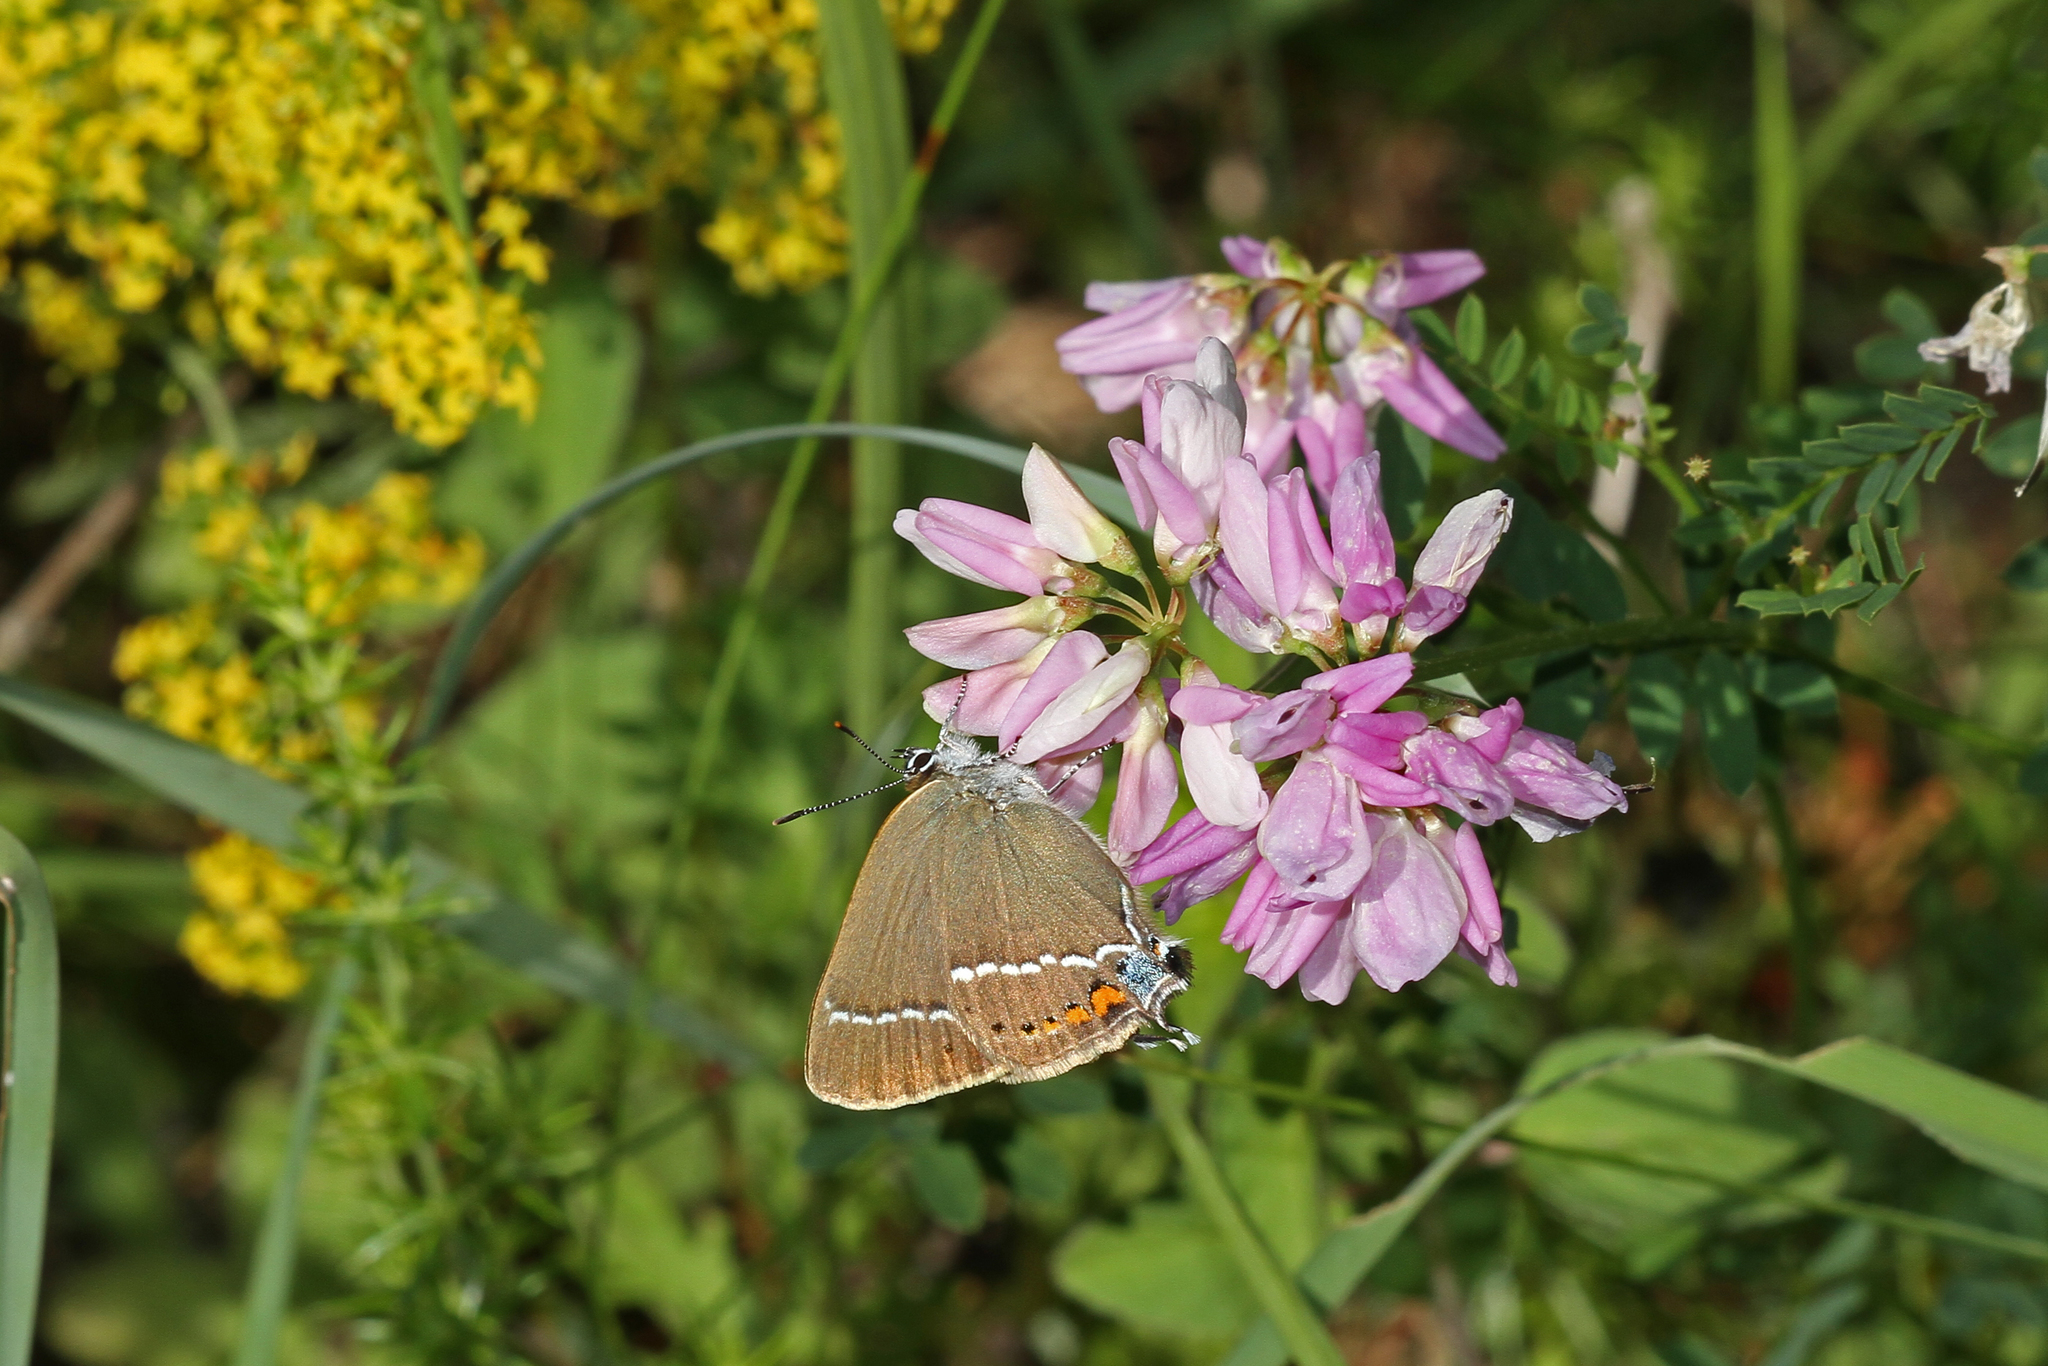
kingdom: Animalia
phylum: Arthropoda
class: Insecta
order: Lepidoptera
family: Lycaenidae
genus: Tuttiola
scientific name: Tuttiola spini
